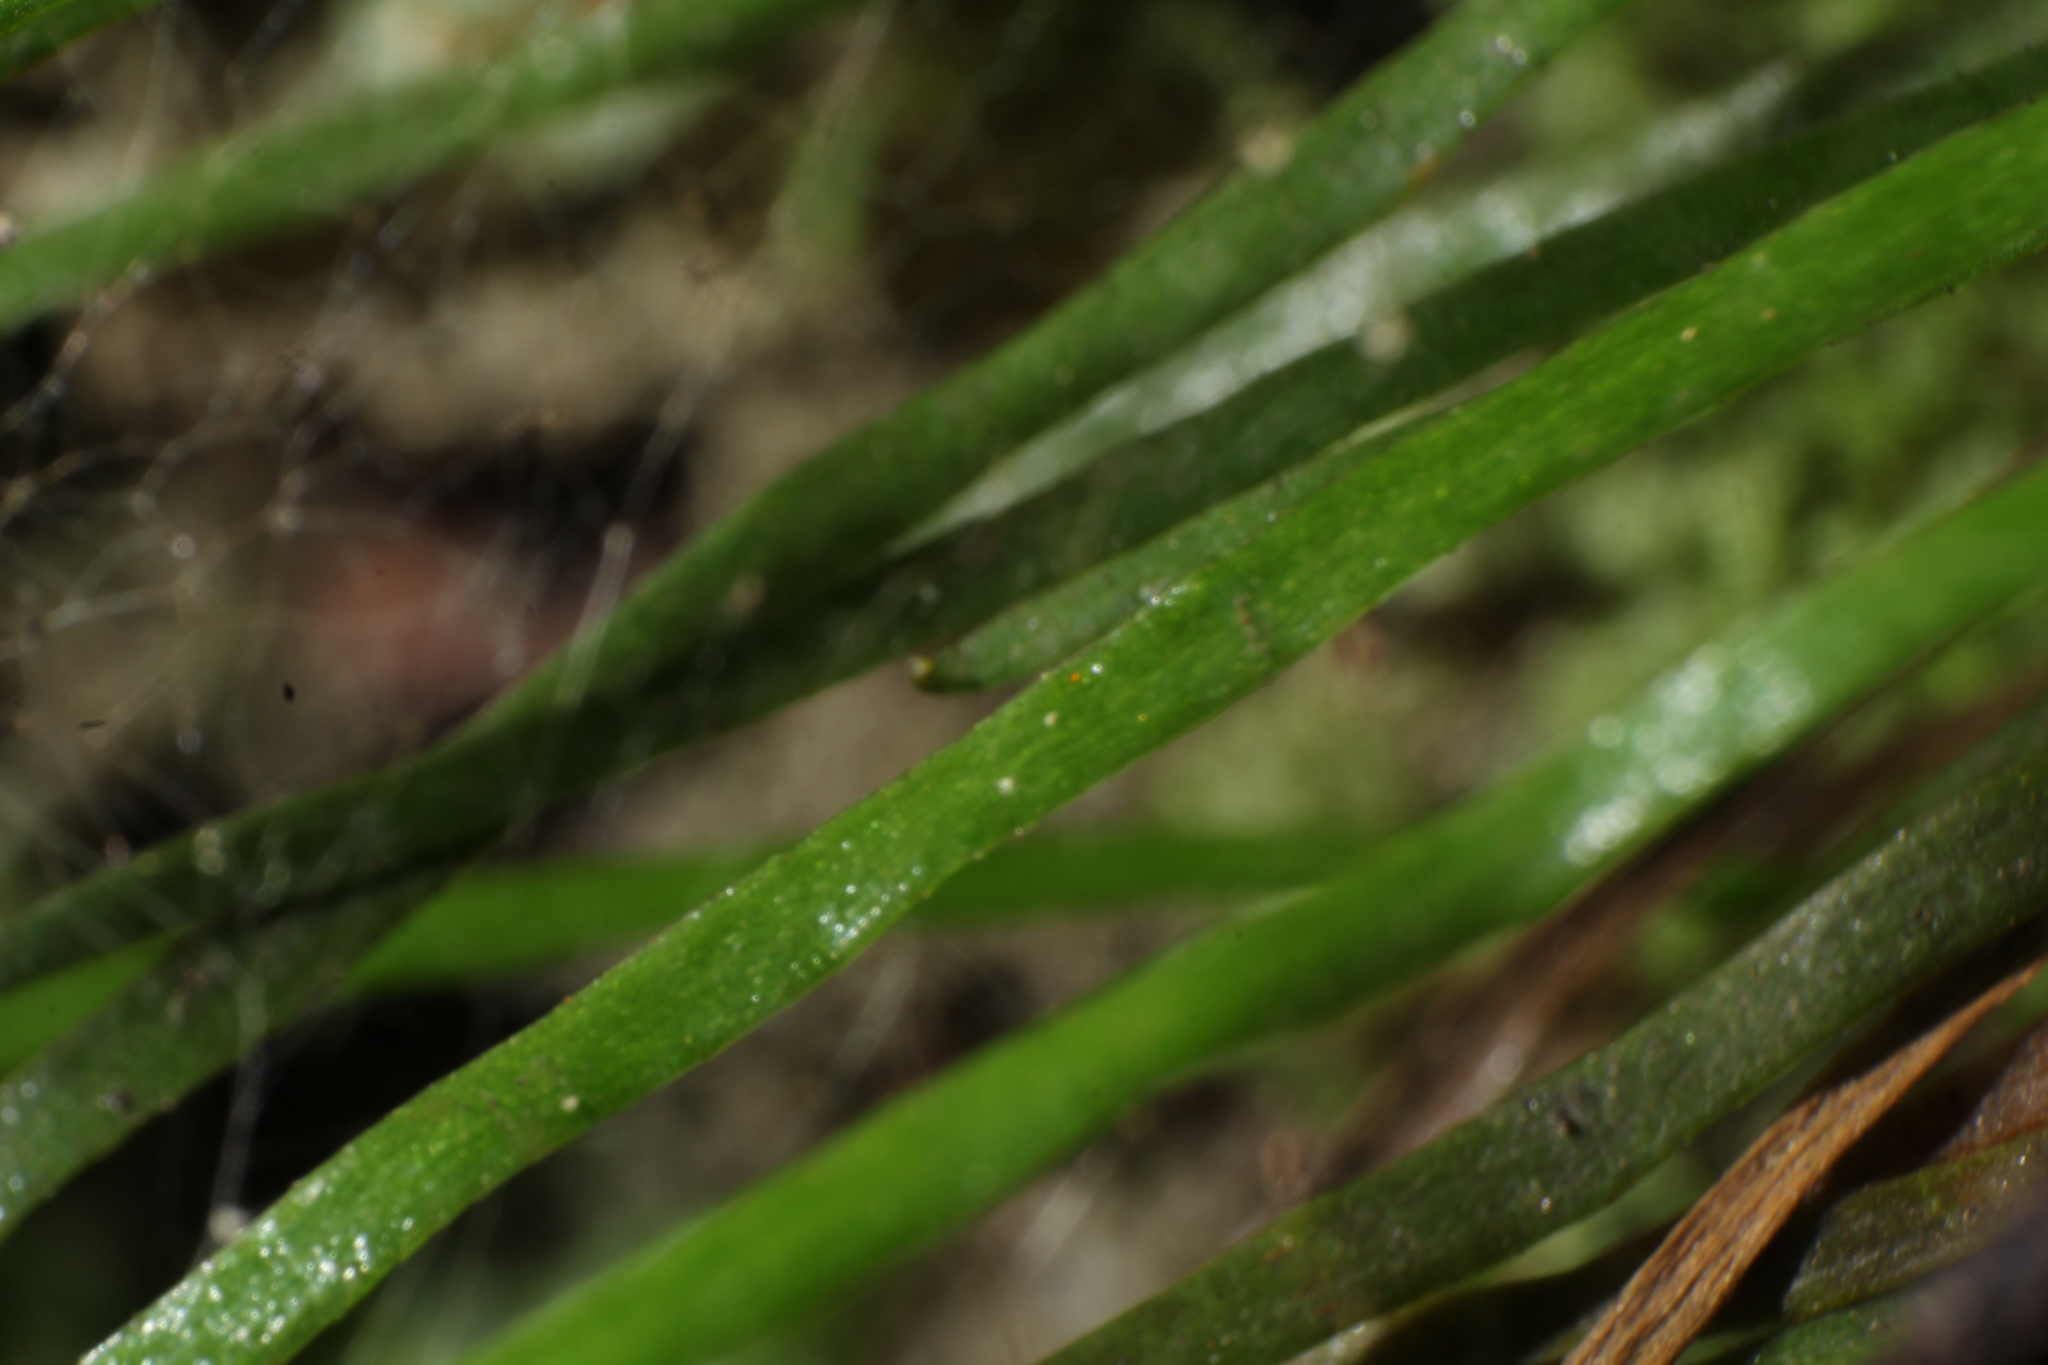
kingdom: Plantae
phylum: Tracheophyta
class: Polypodiopsida
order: Schizaeales
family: Schizaeaceae
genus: Microschizaea
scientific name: Microschizaea rupestris
